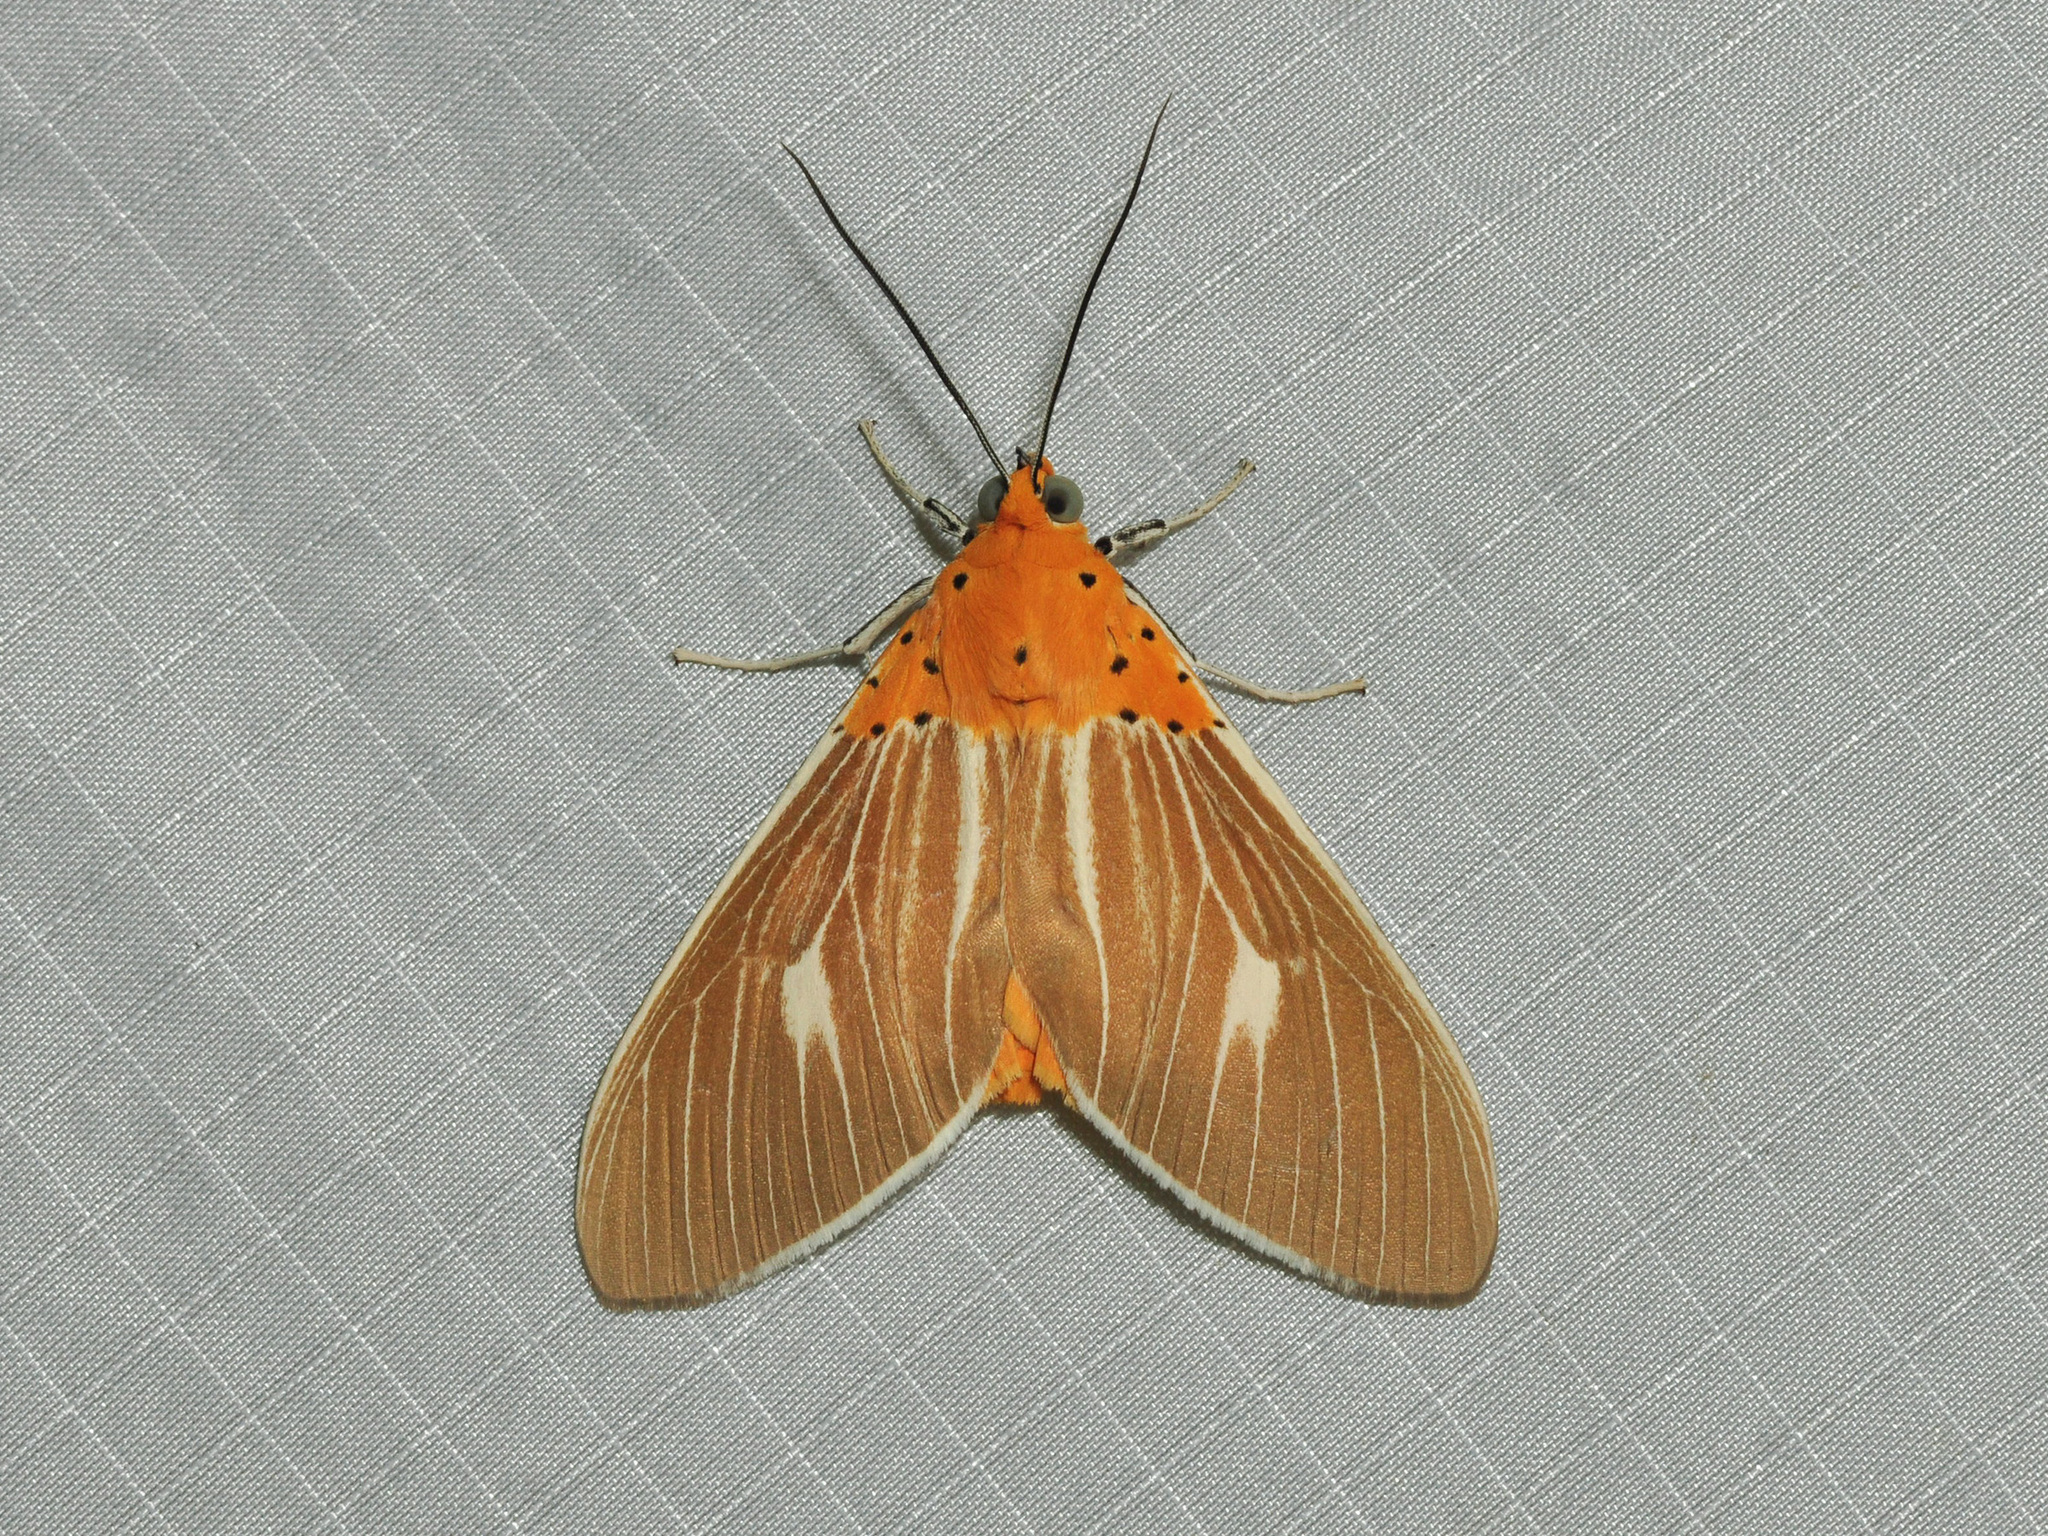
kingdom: Animalia
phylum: Arthropoda
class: Insecta
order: Lepidoptera
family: Erebidae
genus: Asota
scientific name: Asota producta
